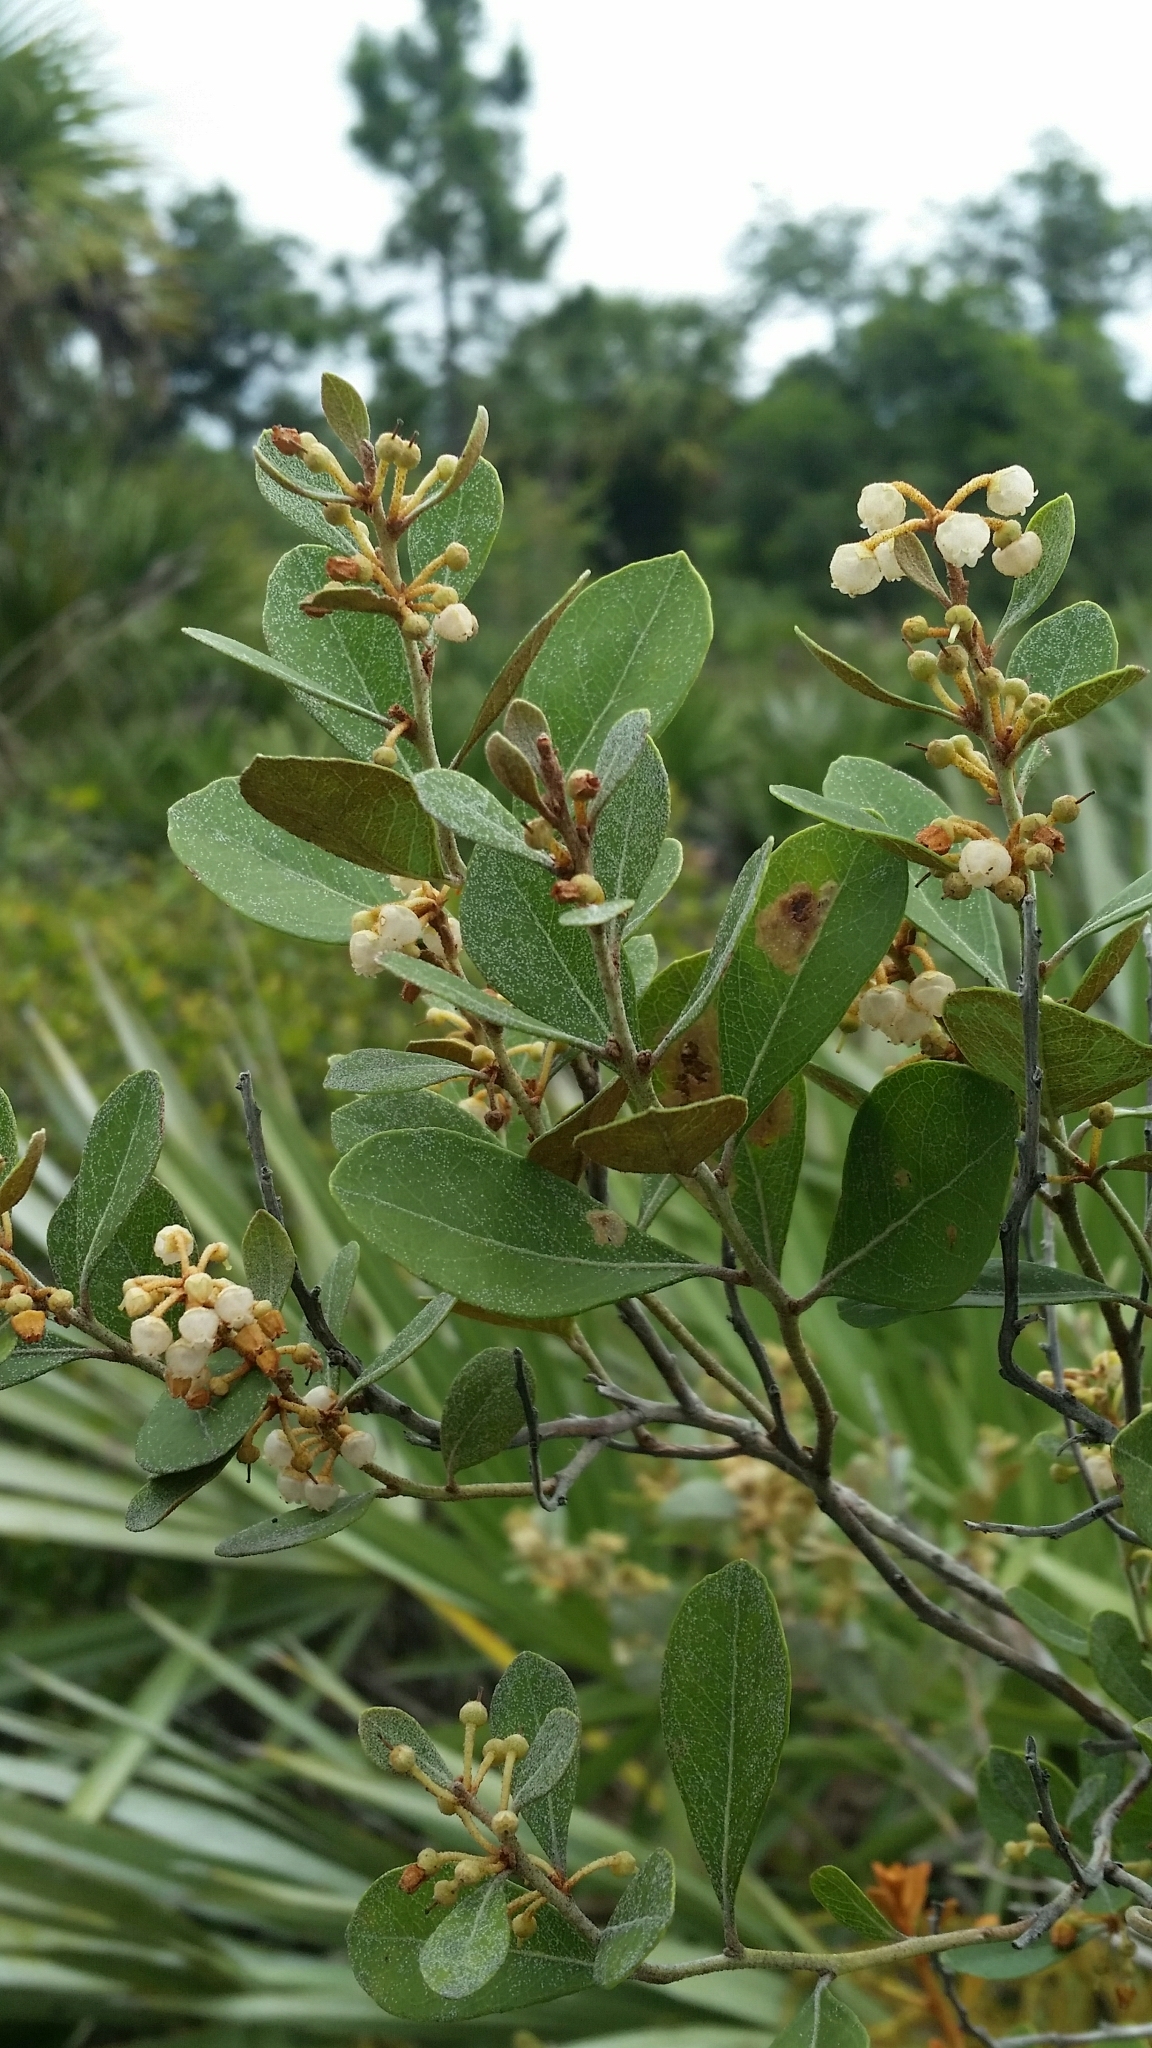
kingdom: Plantae
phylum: Tracheophyta
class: Magnoliopsida
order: Ericales
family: Ericaceae
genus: Lyonia
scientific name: Lyonia fruticosa
